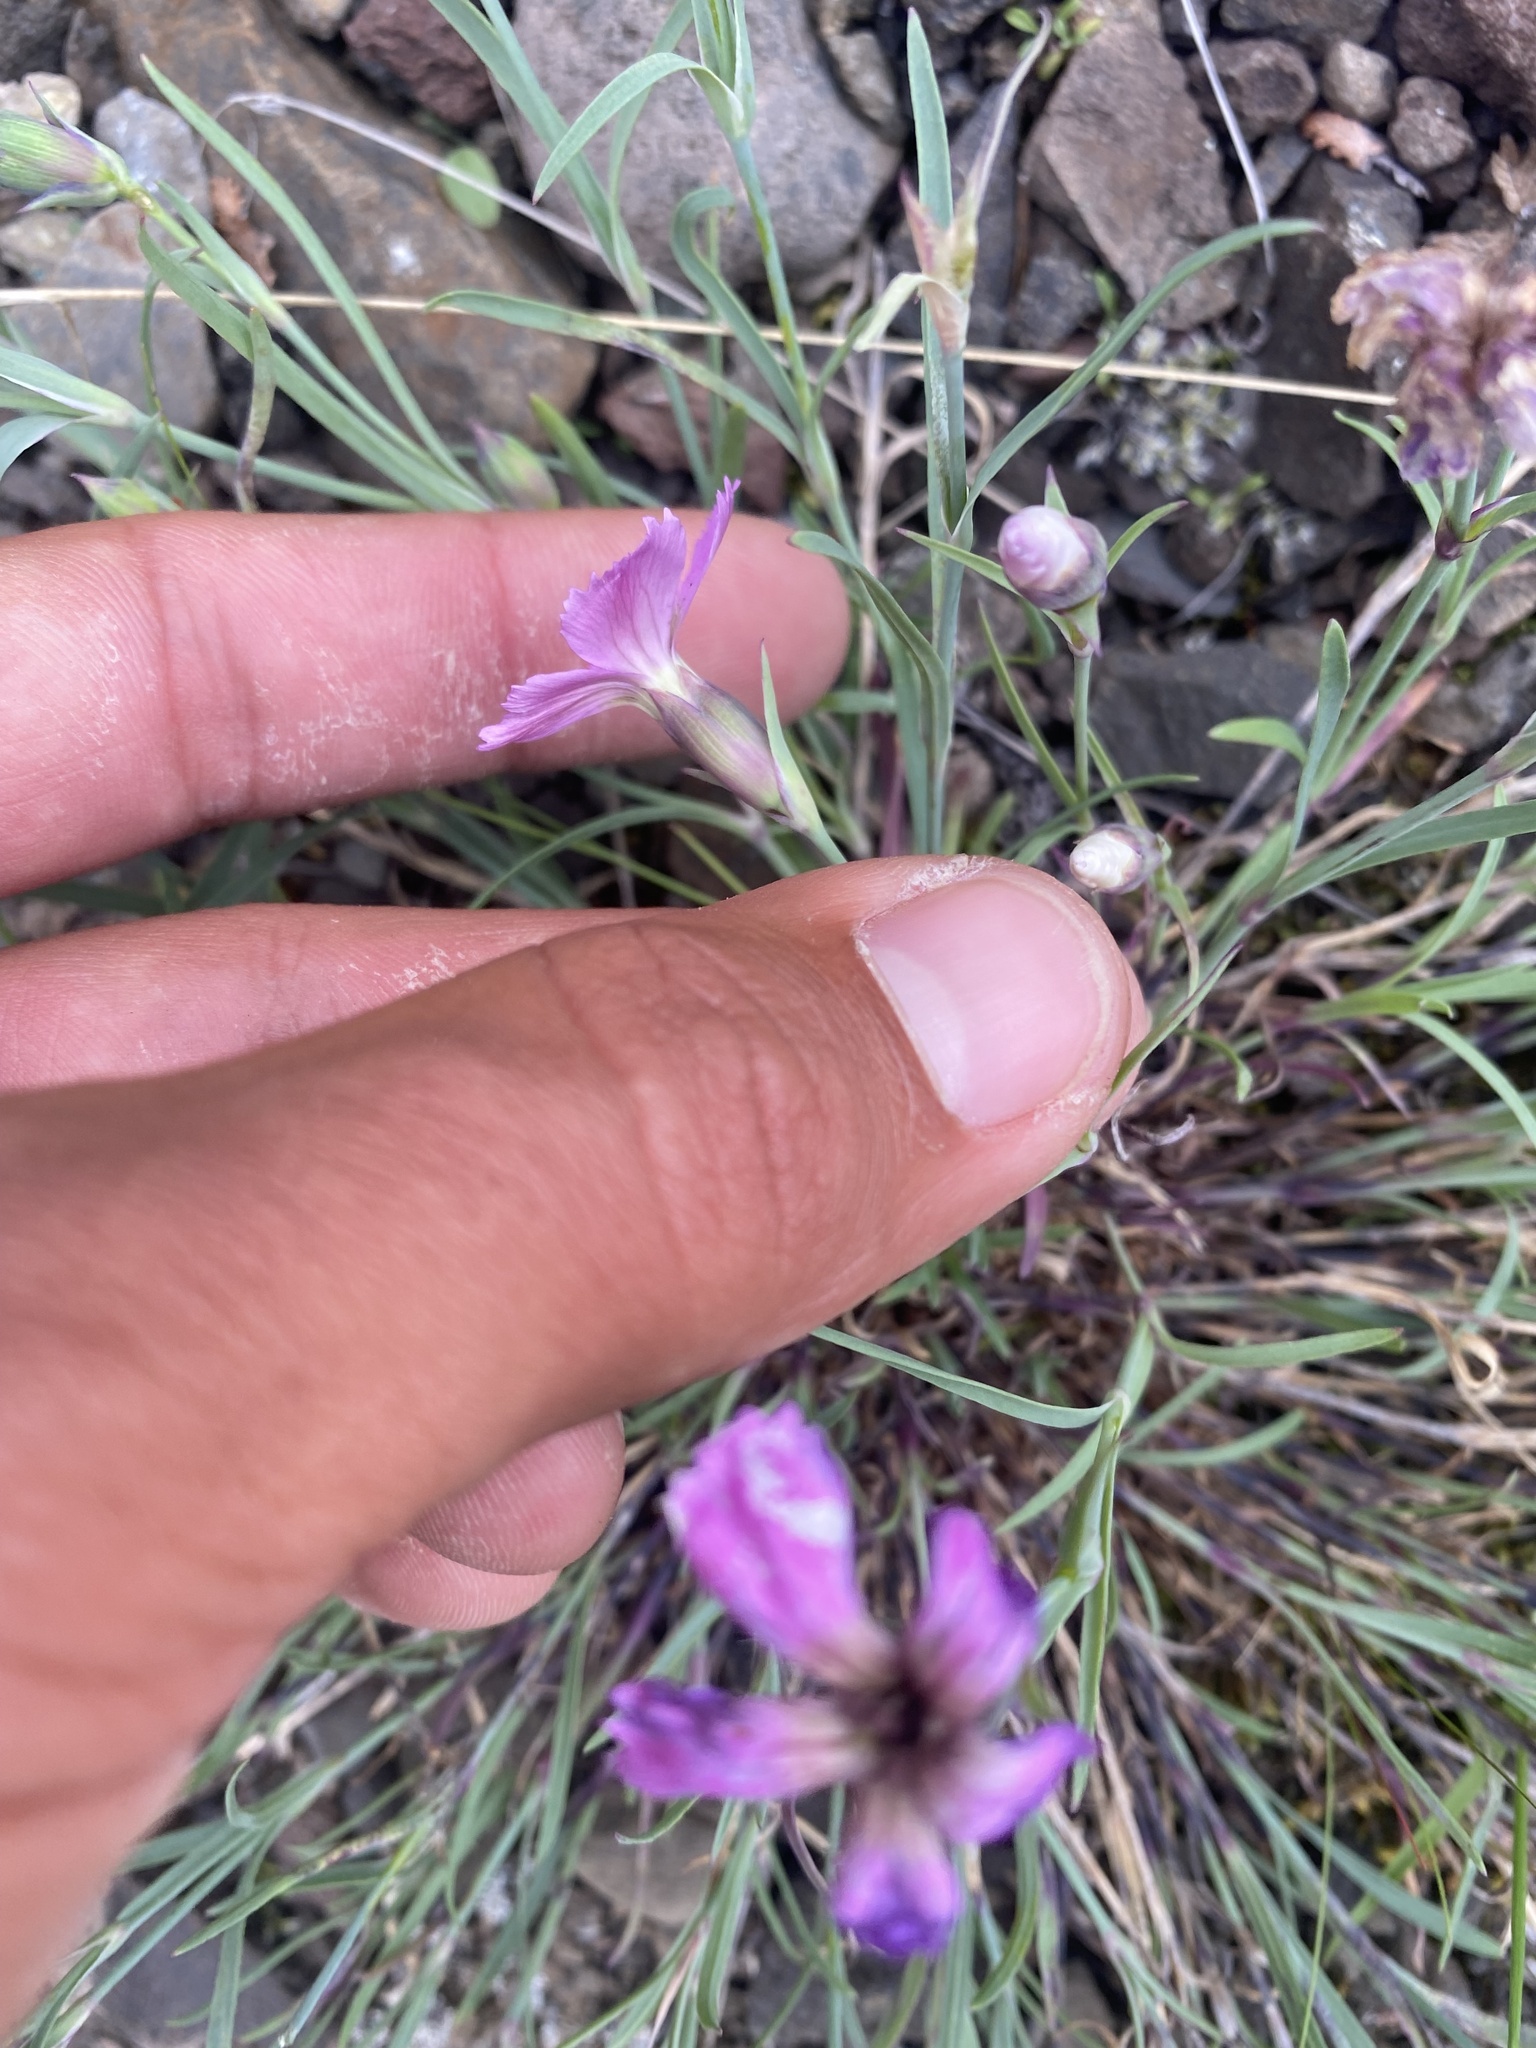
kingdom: Plantae
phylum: Tracheophyta
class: Magnoliopsida
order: Caryophyllales
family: Caryophyllaceae
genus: Dianthus
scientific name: Dianthus repens
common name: Northern pink
